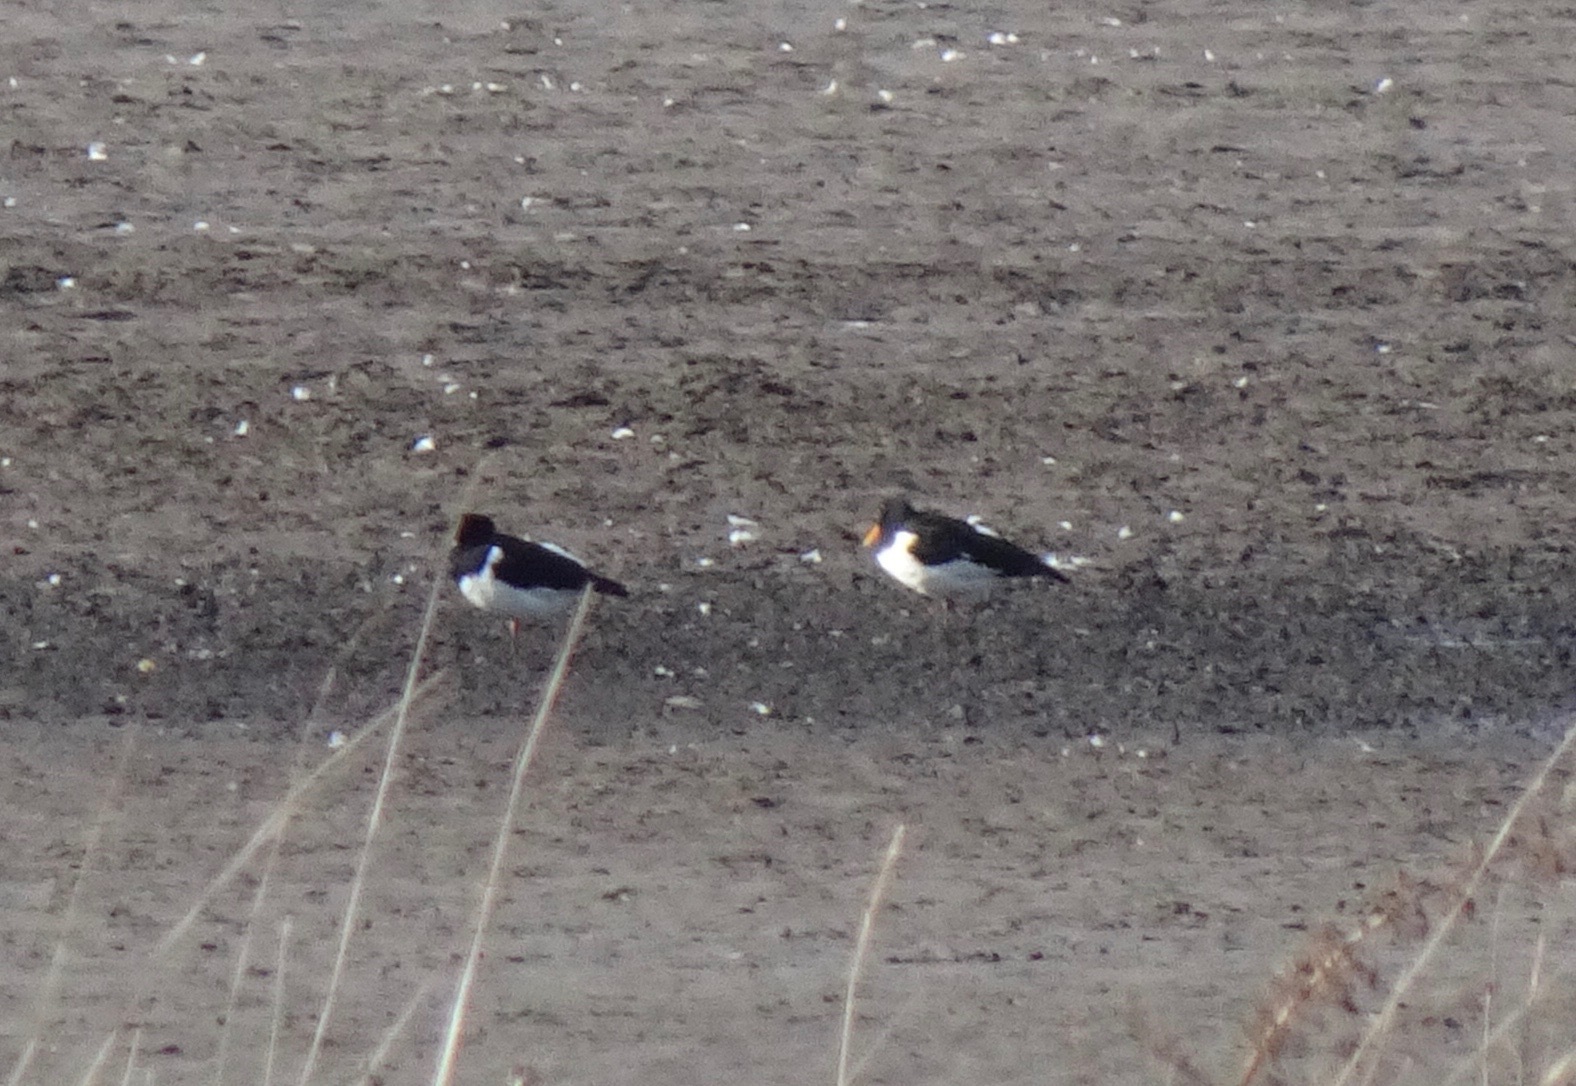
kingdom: Animalia
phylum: Chordata
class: Aves
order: Charadriiformes
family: Haematopodidae
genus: Haematopus
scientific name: Haematopus ostralegus
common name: Eurasian oystercatcher
